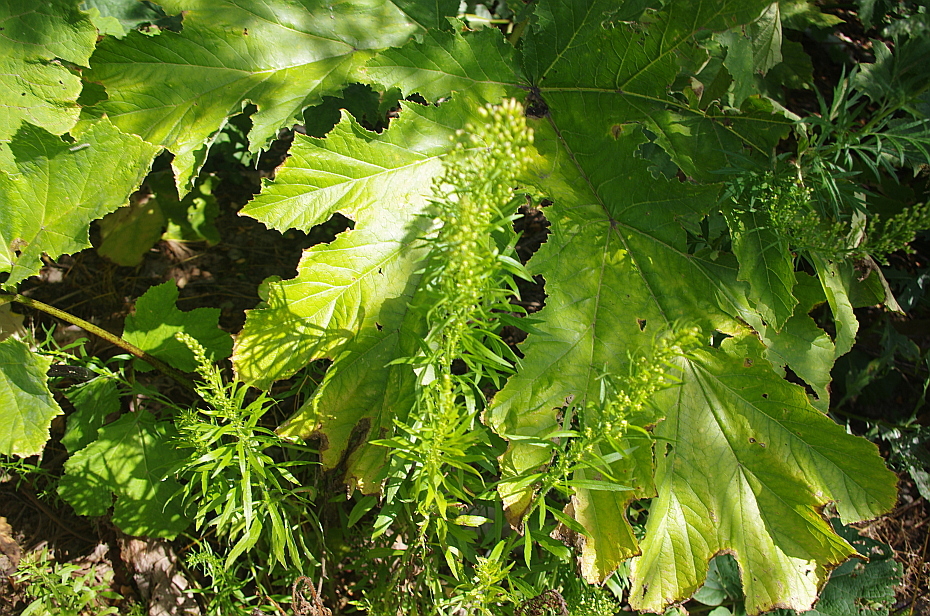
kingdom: Plantae
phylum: Tracheophyta
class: Magnoliopsida
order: Apiales
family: Apiaceae
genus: Heracleum
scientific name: Heracleum sosnowskyi
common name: Sosnowsky's hogweed
